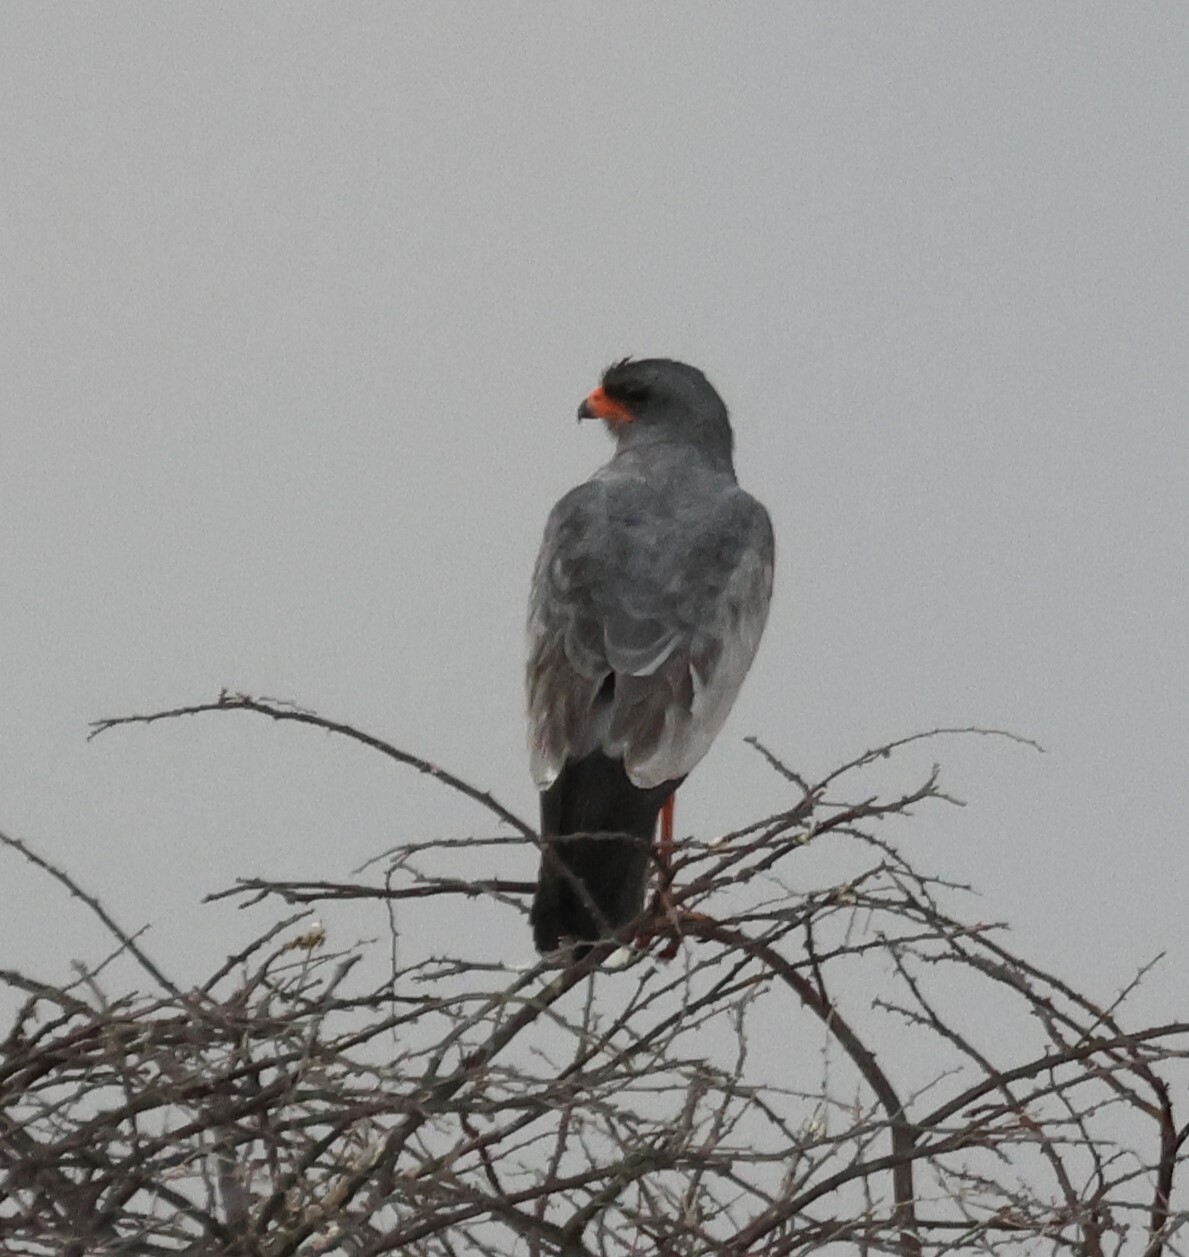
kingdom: Animalia
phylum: Chordata
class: Aves
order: Accipitriformes
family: Accipitridae
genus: Melierax
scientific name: Melierax canorus
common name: Pale chanting-goshawk
